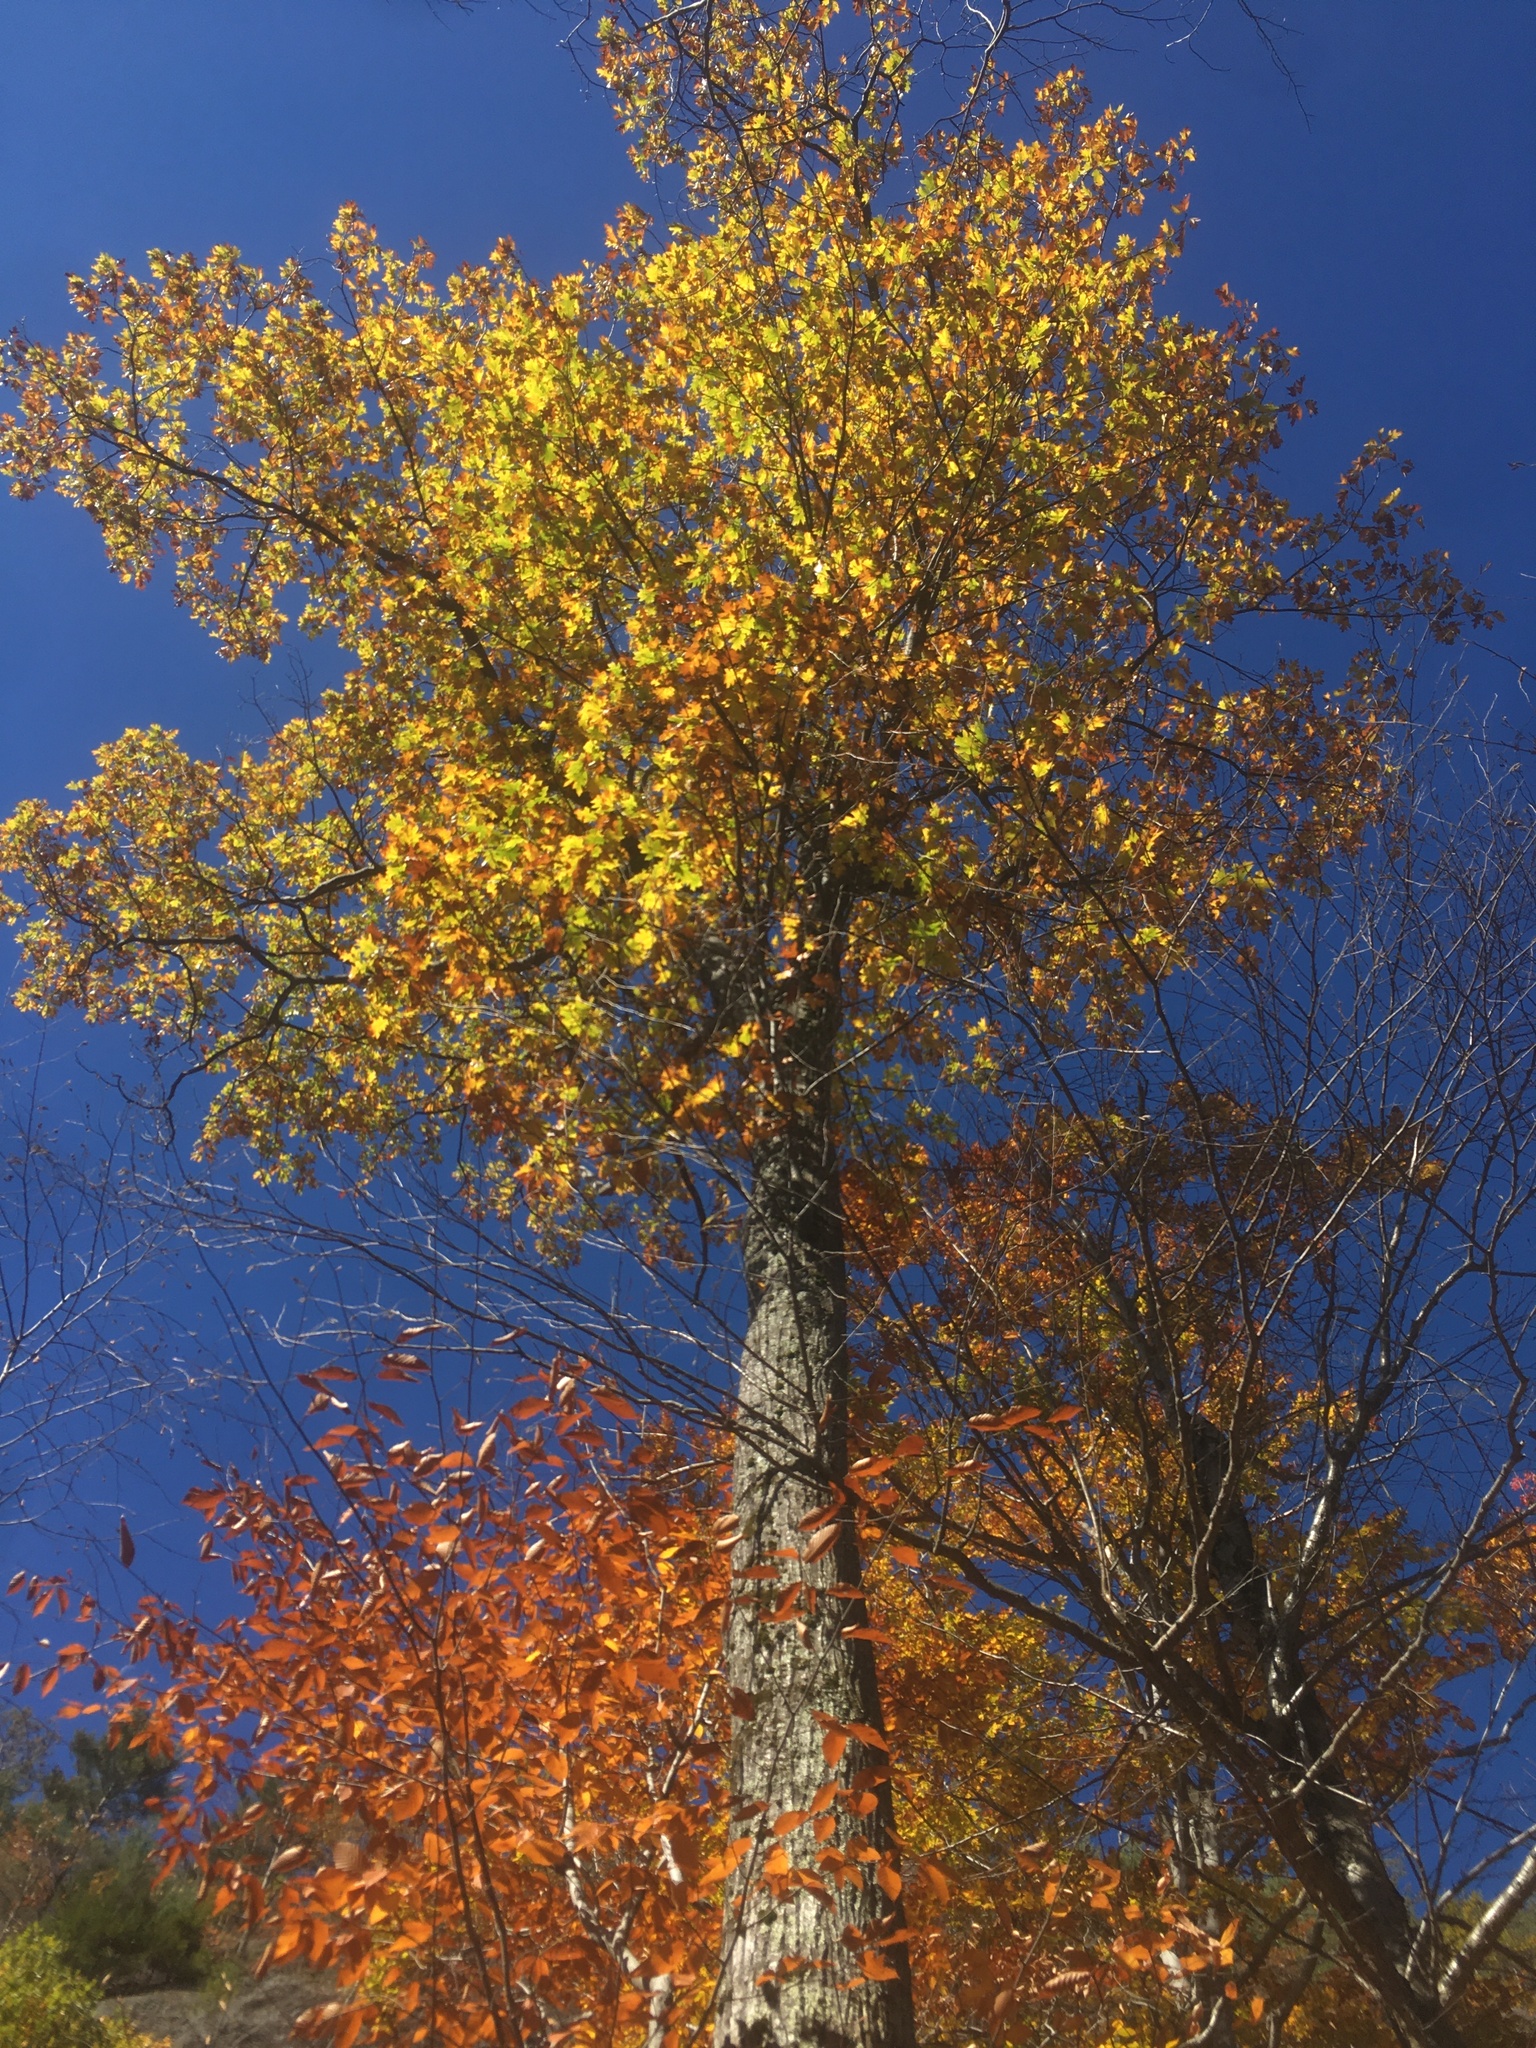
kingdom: Plantae
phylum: Tracheophyta
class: Magnoliopsida
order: Fagales
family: Fagaceae
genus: Quercus
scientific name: Quercus rubra
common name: Red oak
